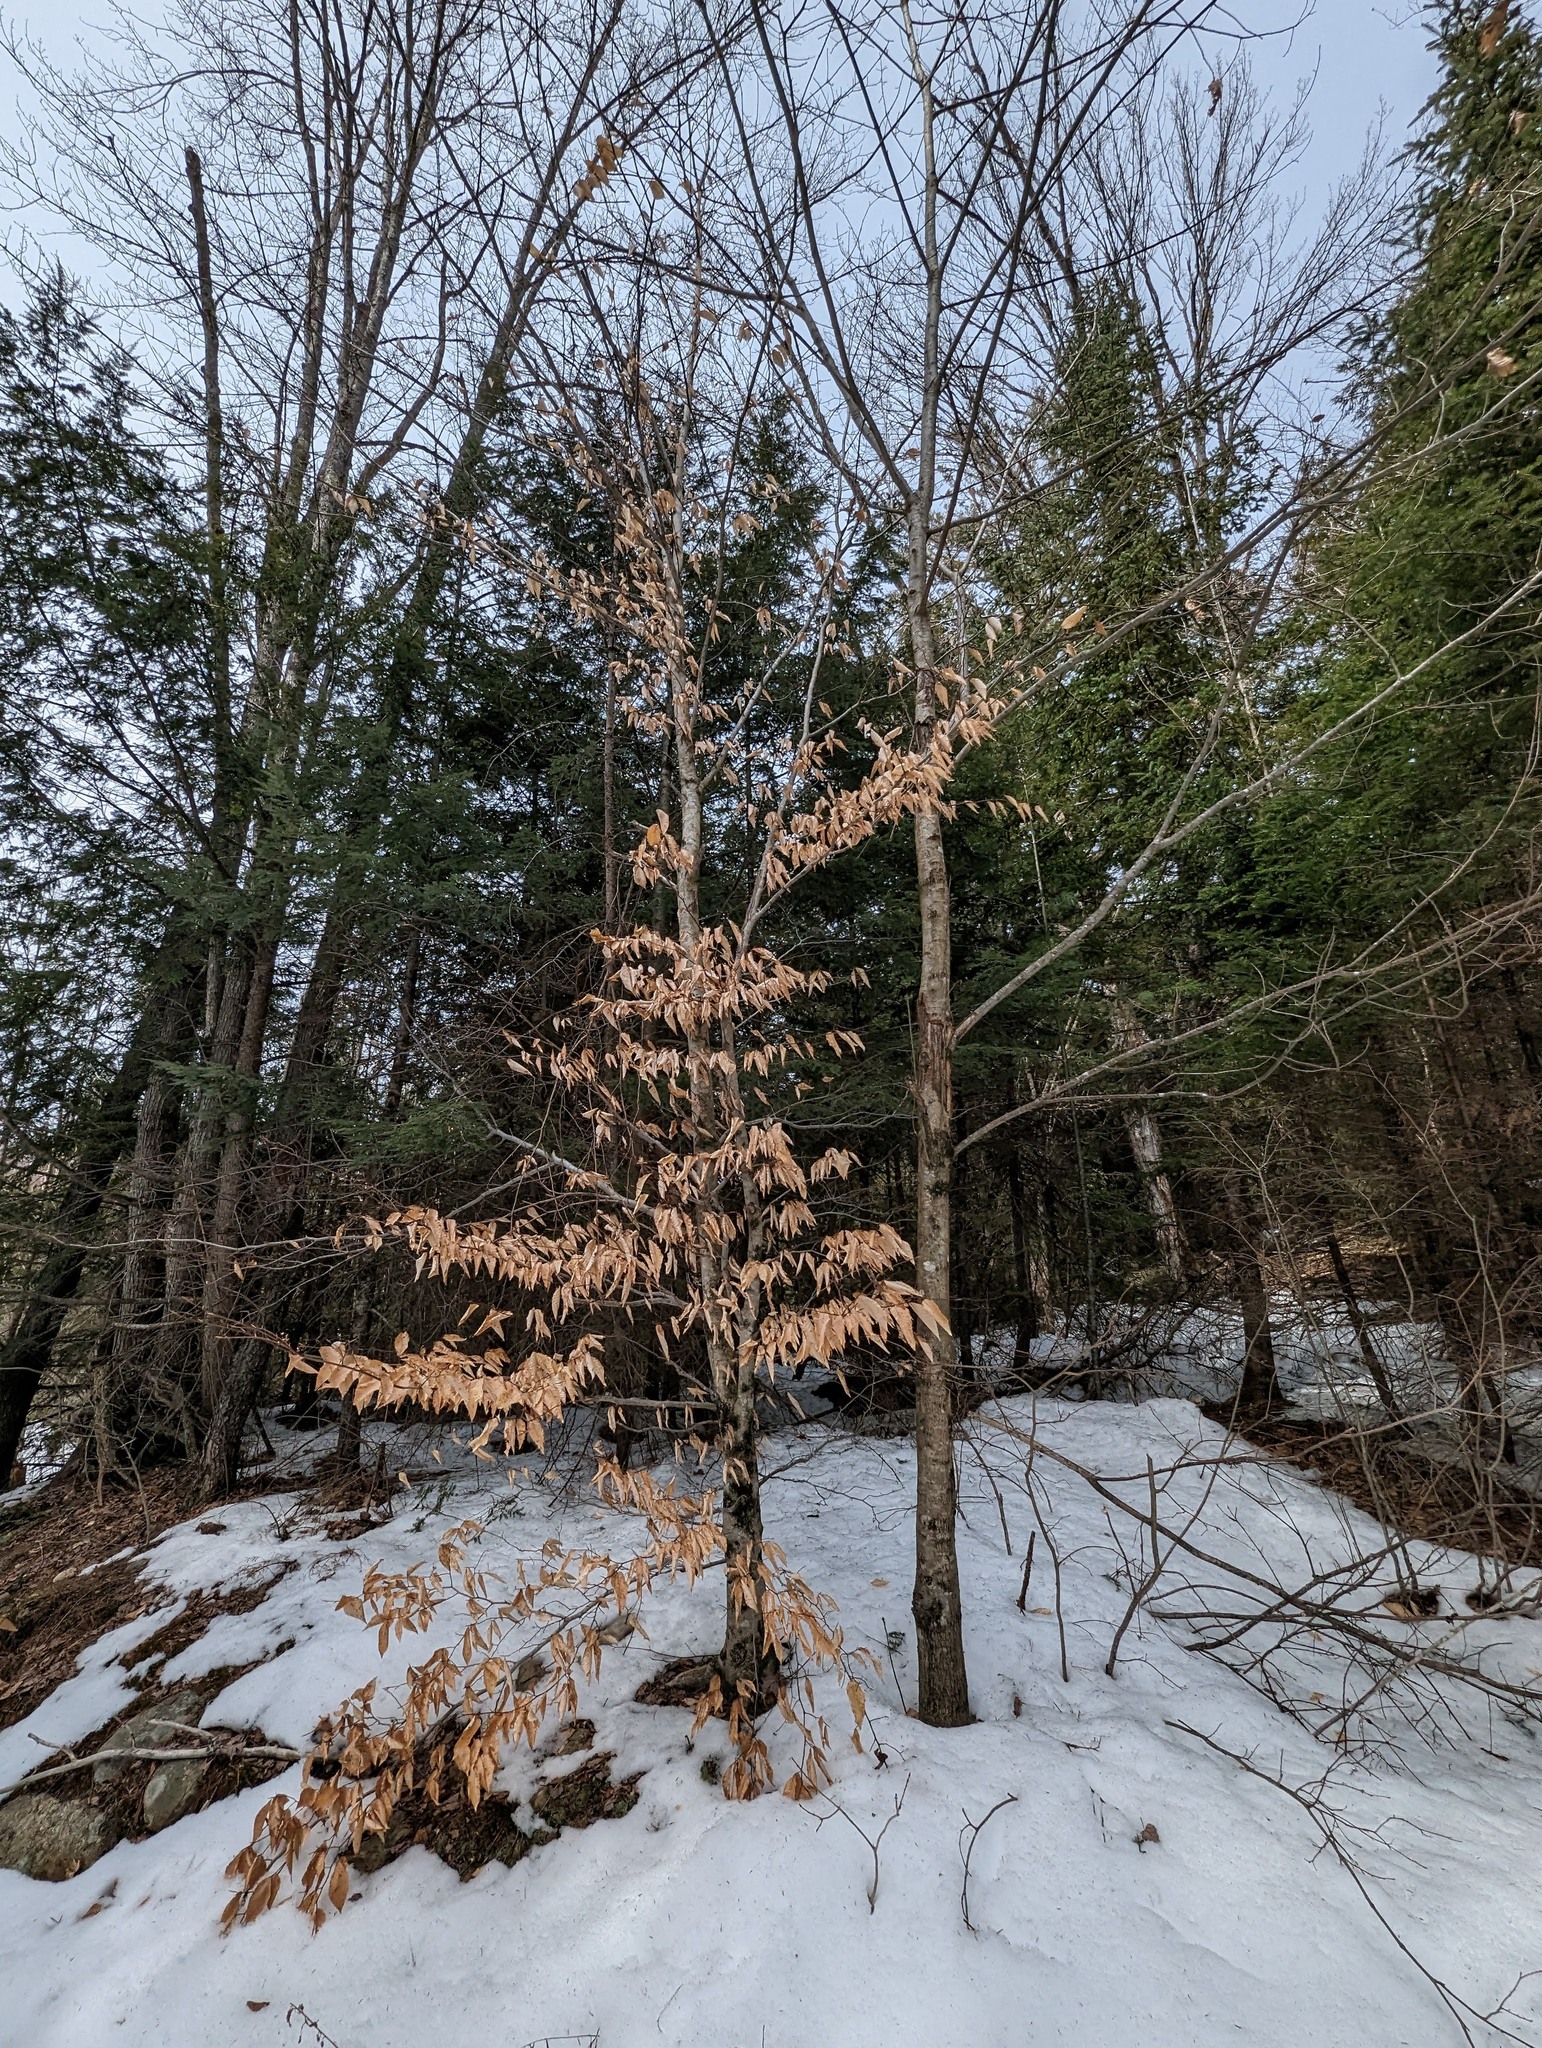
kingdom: Plantae
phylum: Tracheophyta
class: Magnoliopsida
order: Fagales
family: Fagaceae
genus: Fagus
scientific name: Fagus grandifolia
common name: American beech
